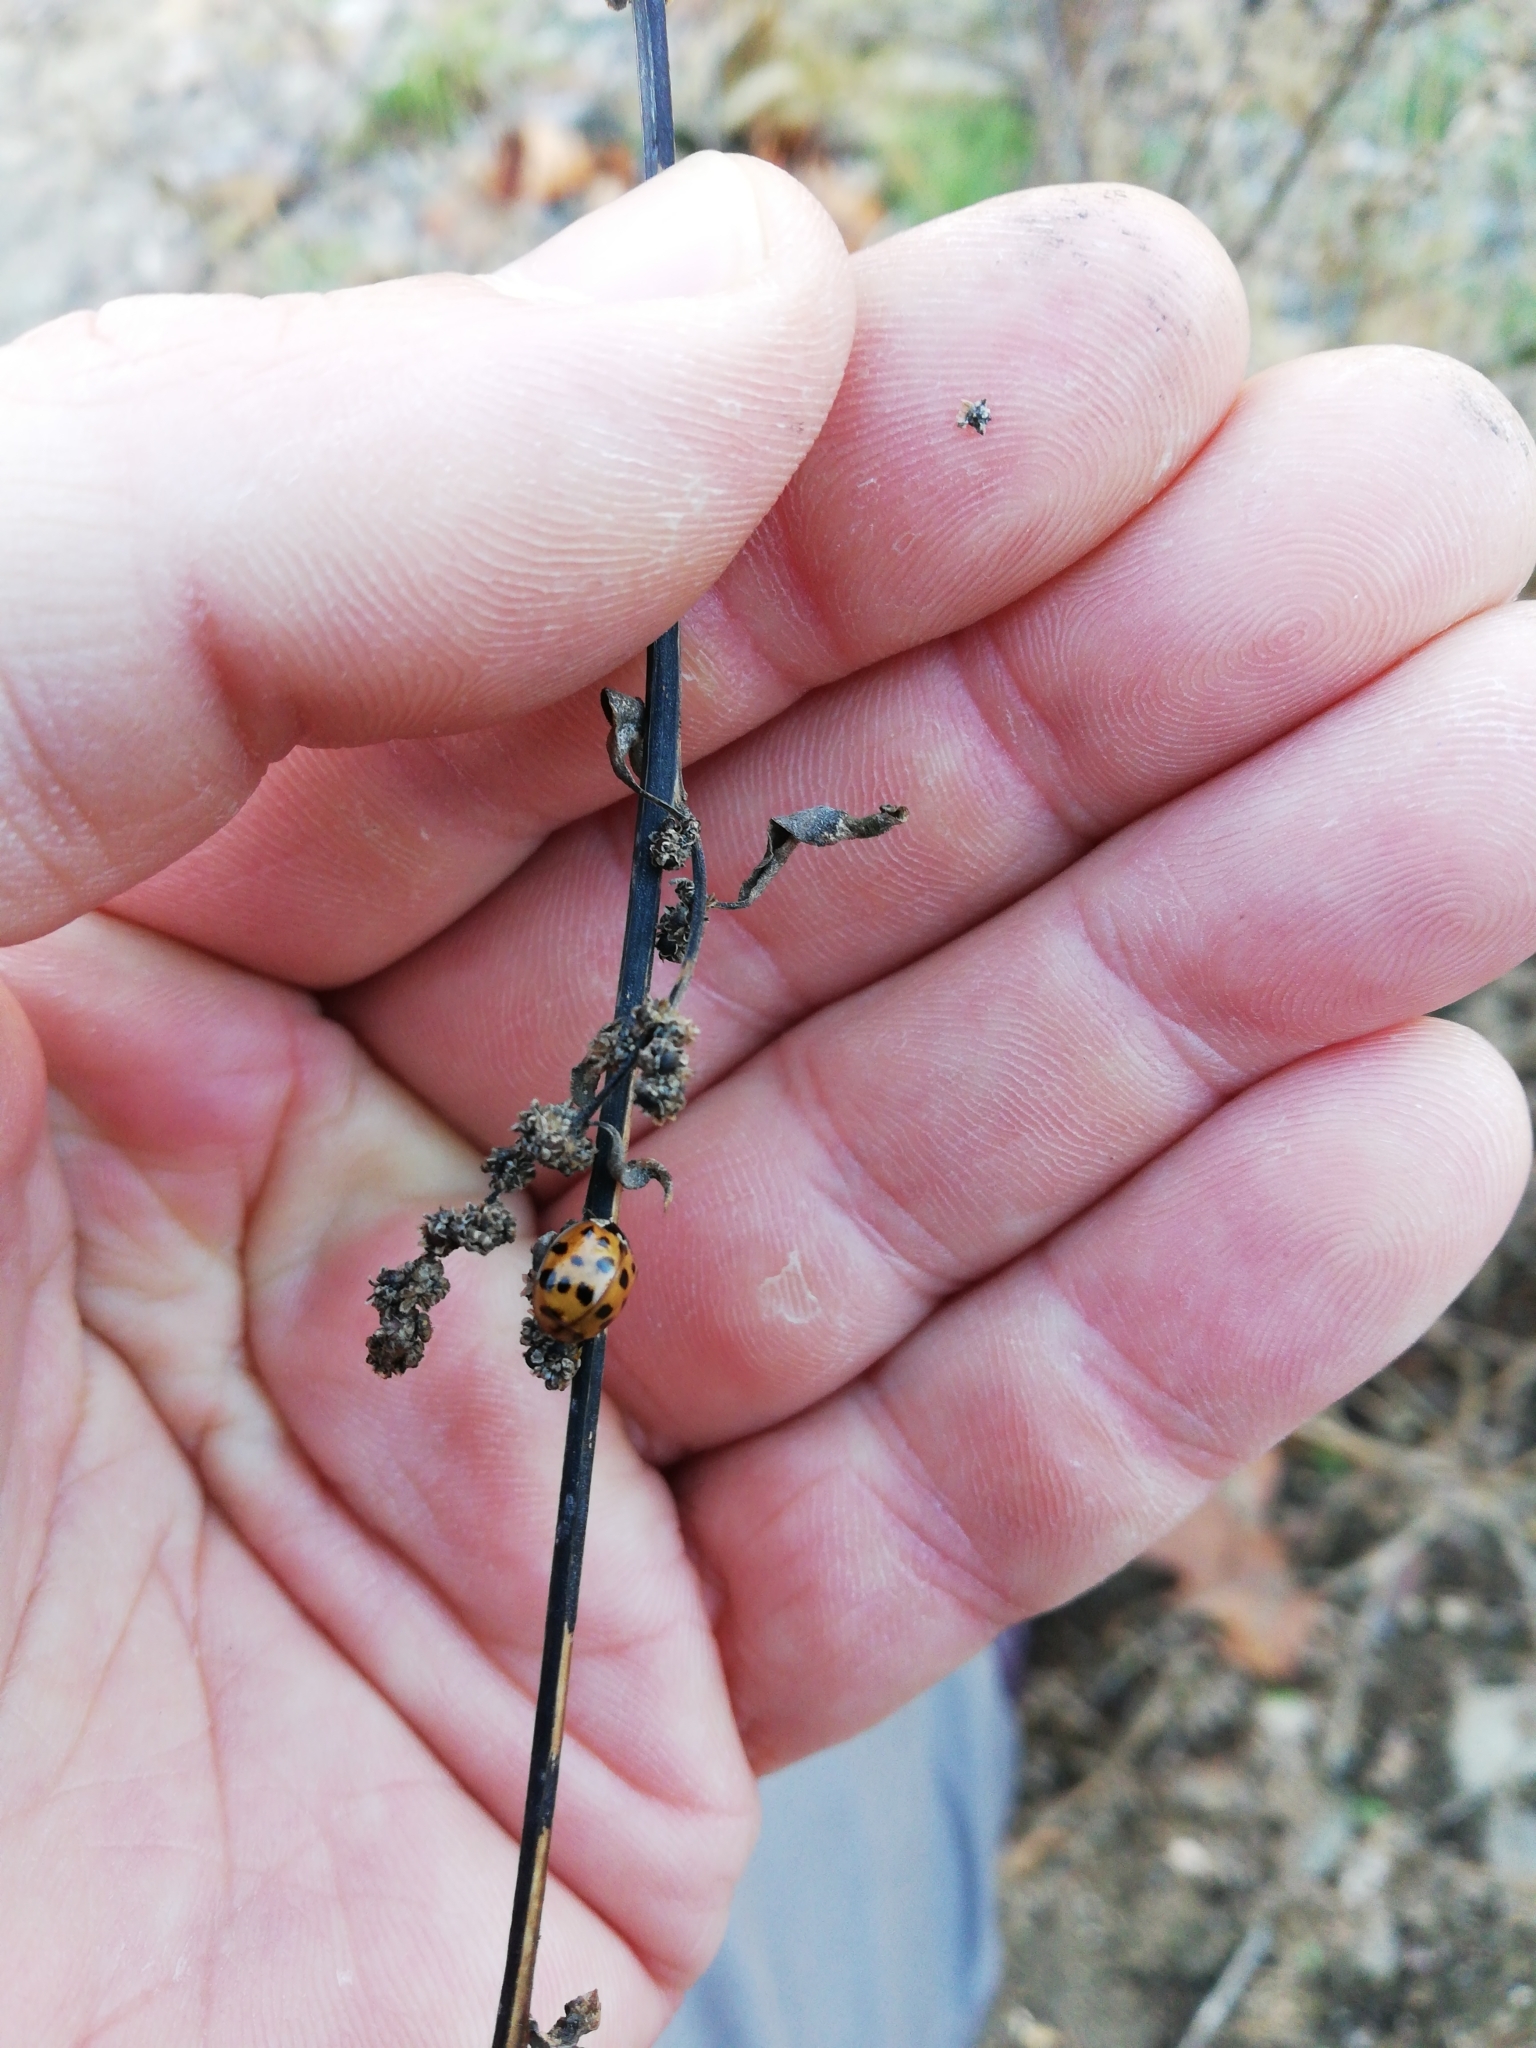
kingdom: Animalia
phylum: Arthropoda
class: Insecta
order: Coleoptera
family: Coccinellidae
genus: Harmonia
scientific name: Harmonia axyridis
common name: Harlequin ladybird
